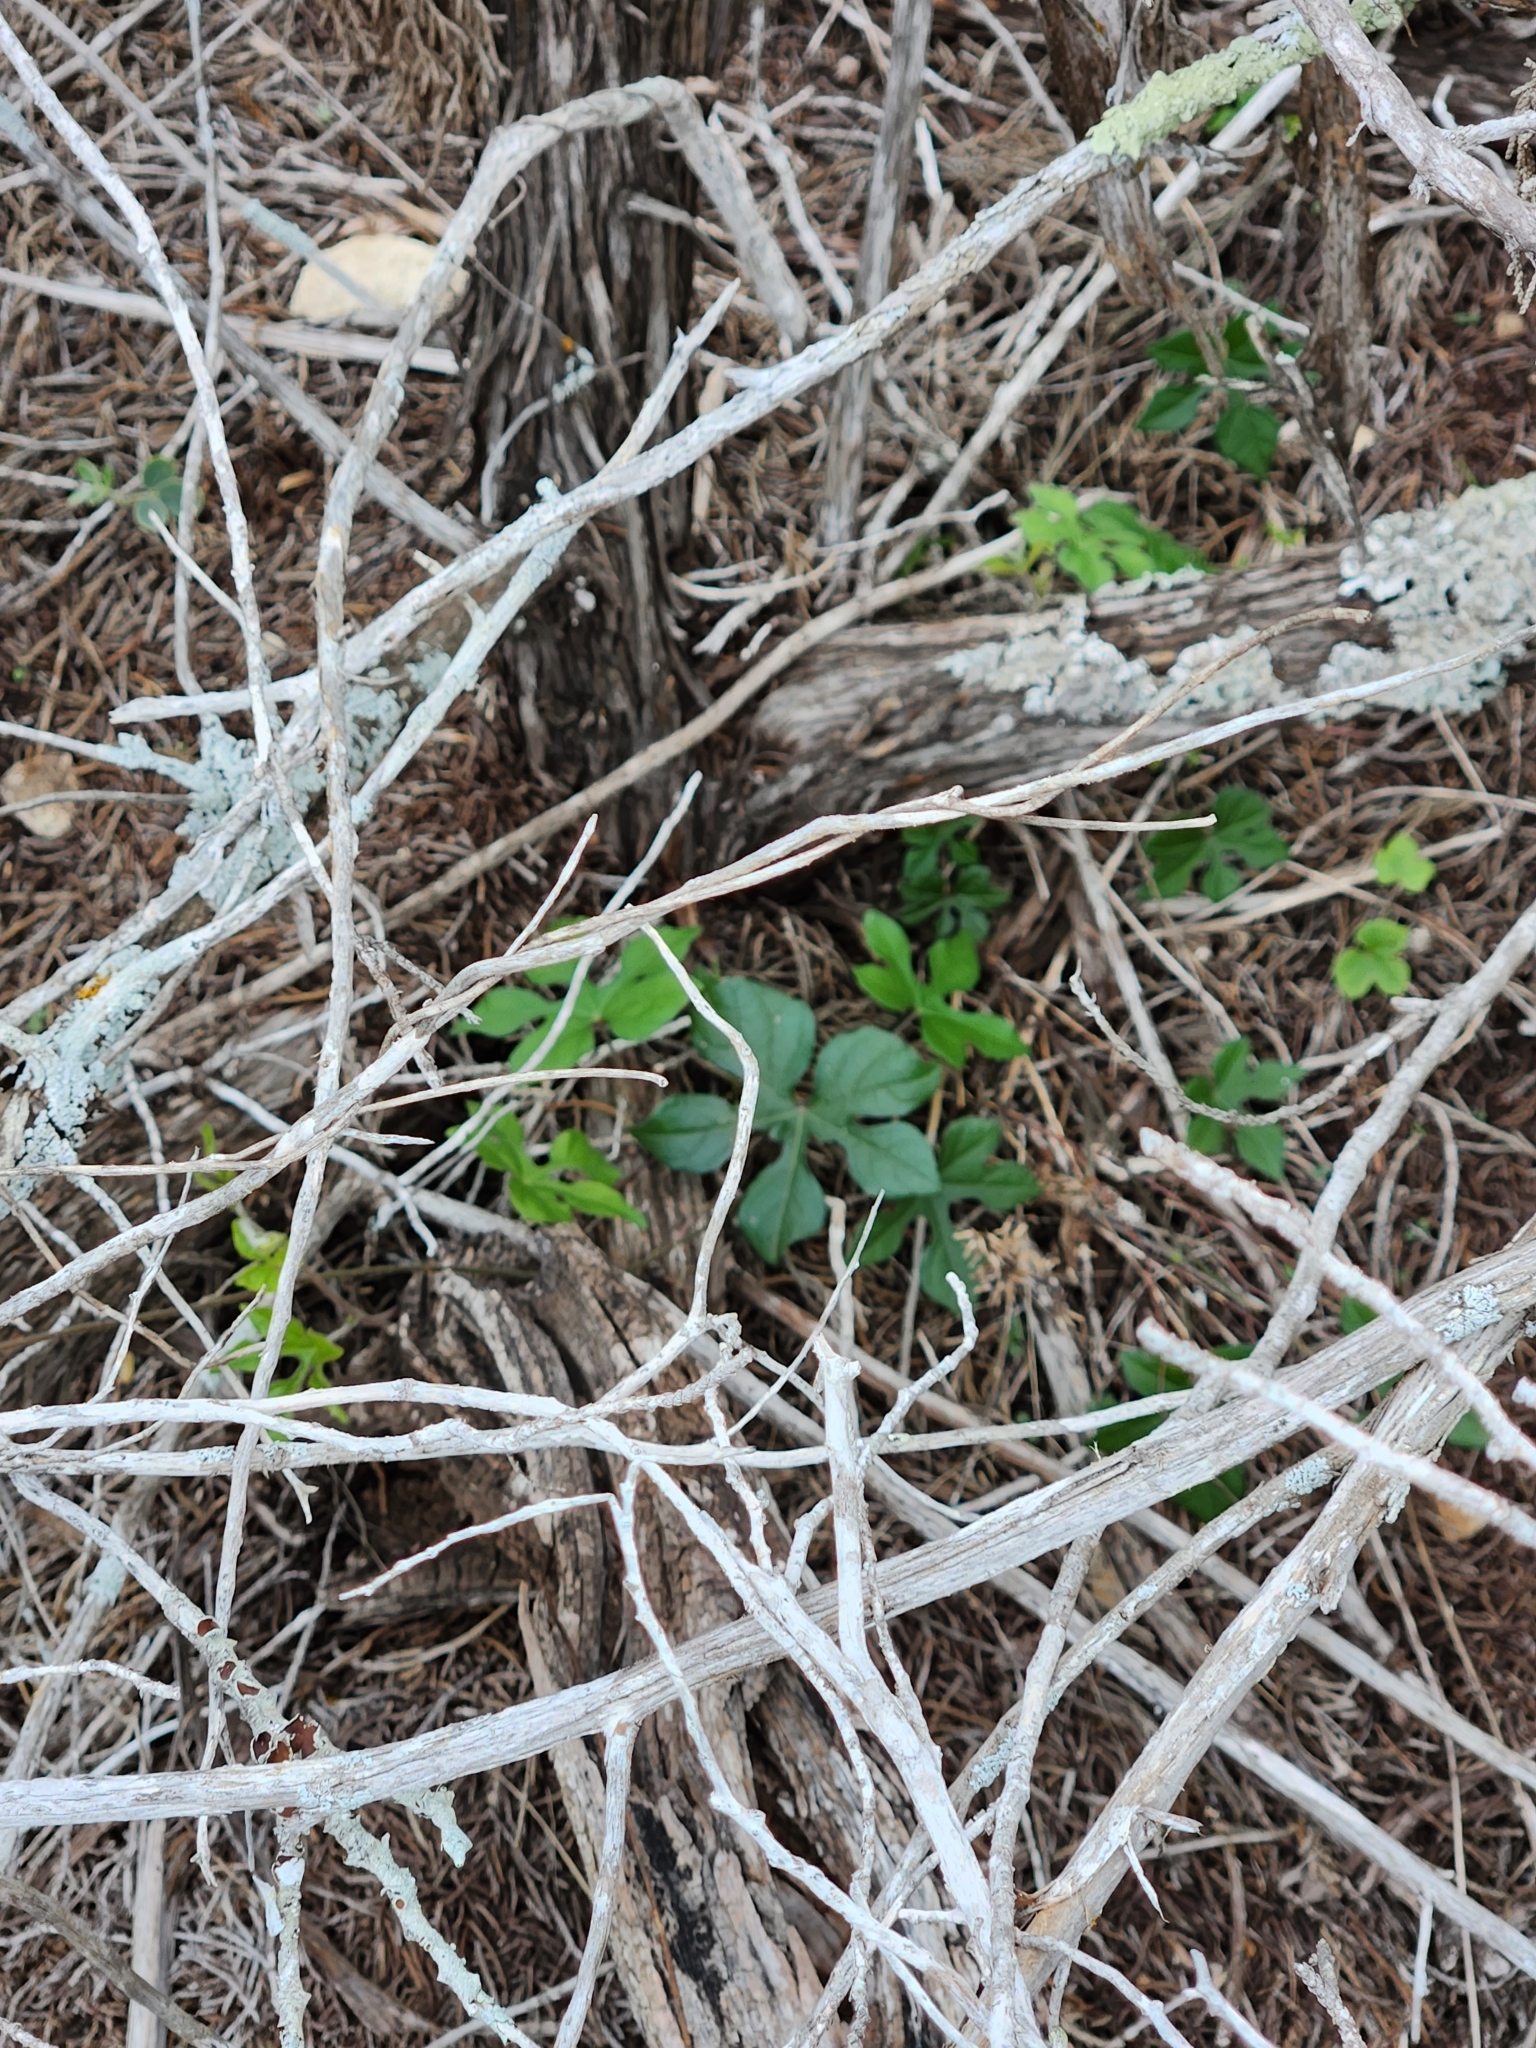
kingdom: Plantae
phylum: Tracheophyta
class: Magnoliopsida
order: Solanales
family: Convolvulaceae
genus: Ipomoea
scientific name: Ipomoea lindheimeri
